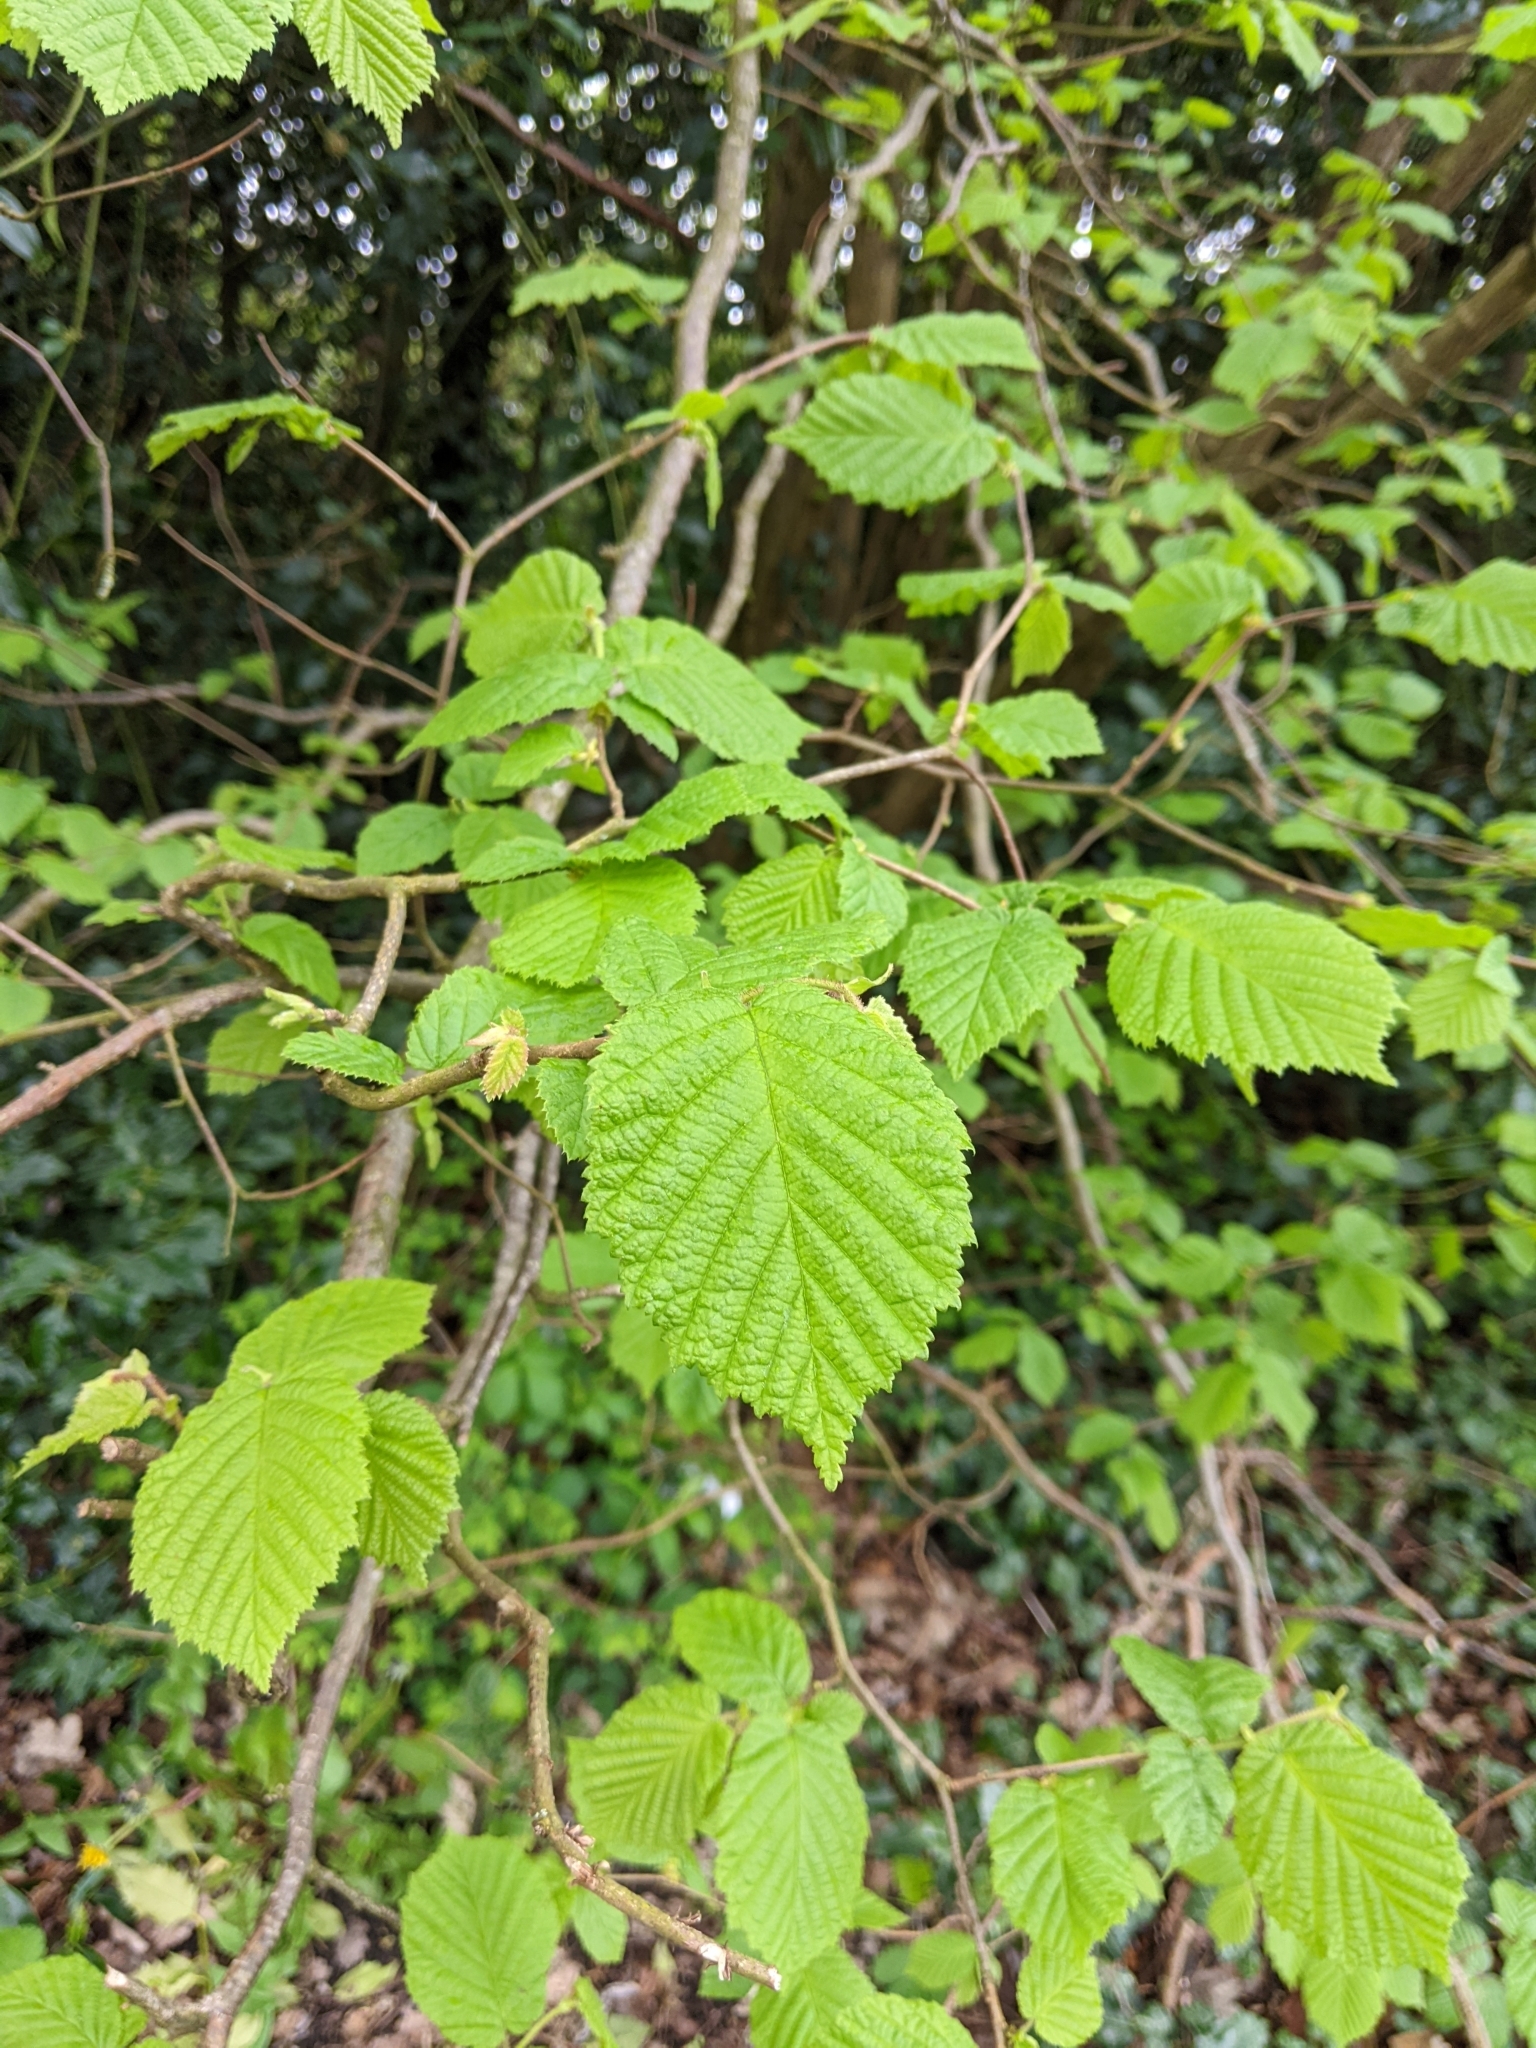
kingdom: Plantae
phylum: Tracheophyta
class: Magnoliopsida
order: Fagales
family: Betulaceae
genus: Corylus
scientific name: Corylus avellana
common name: European hazel
